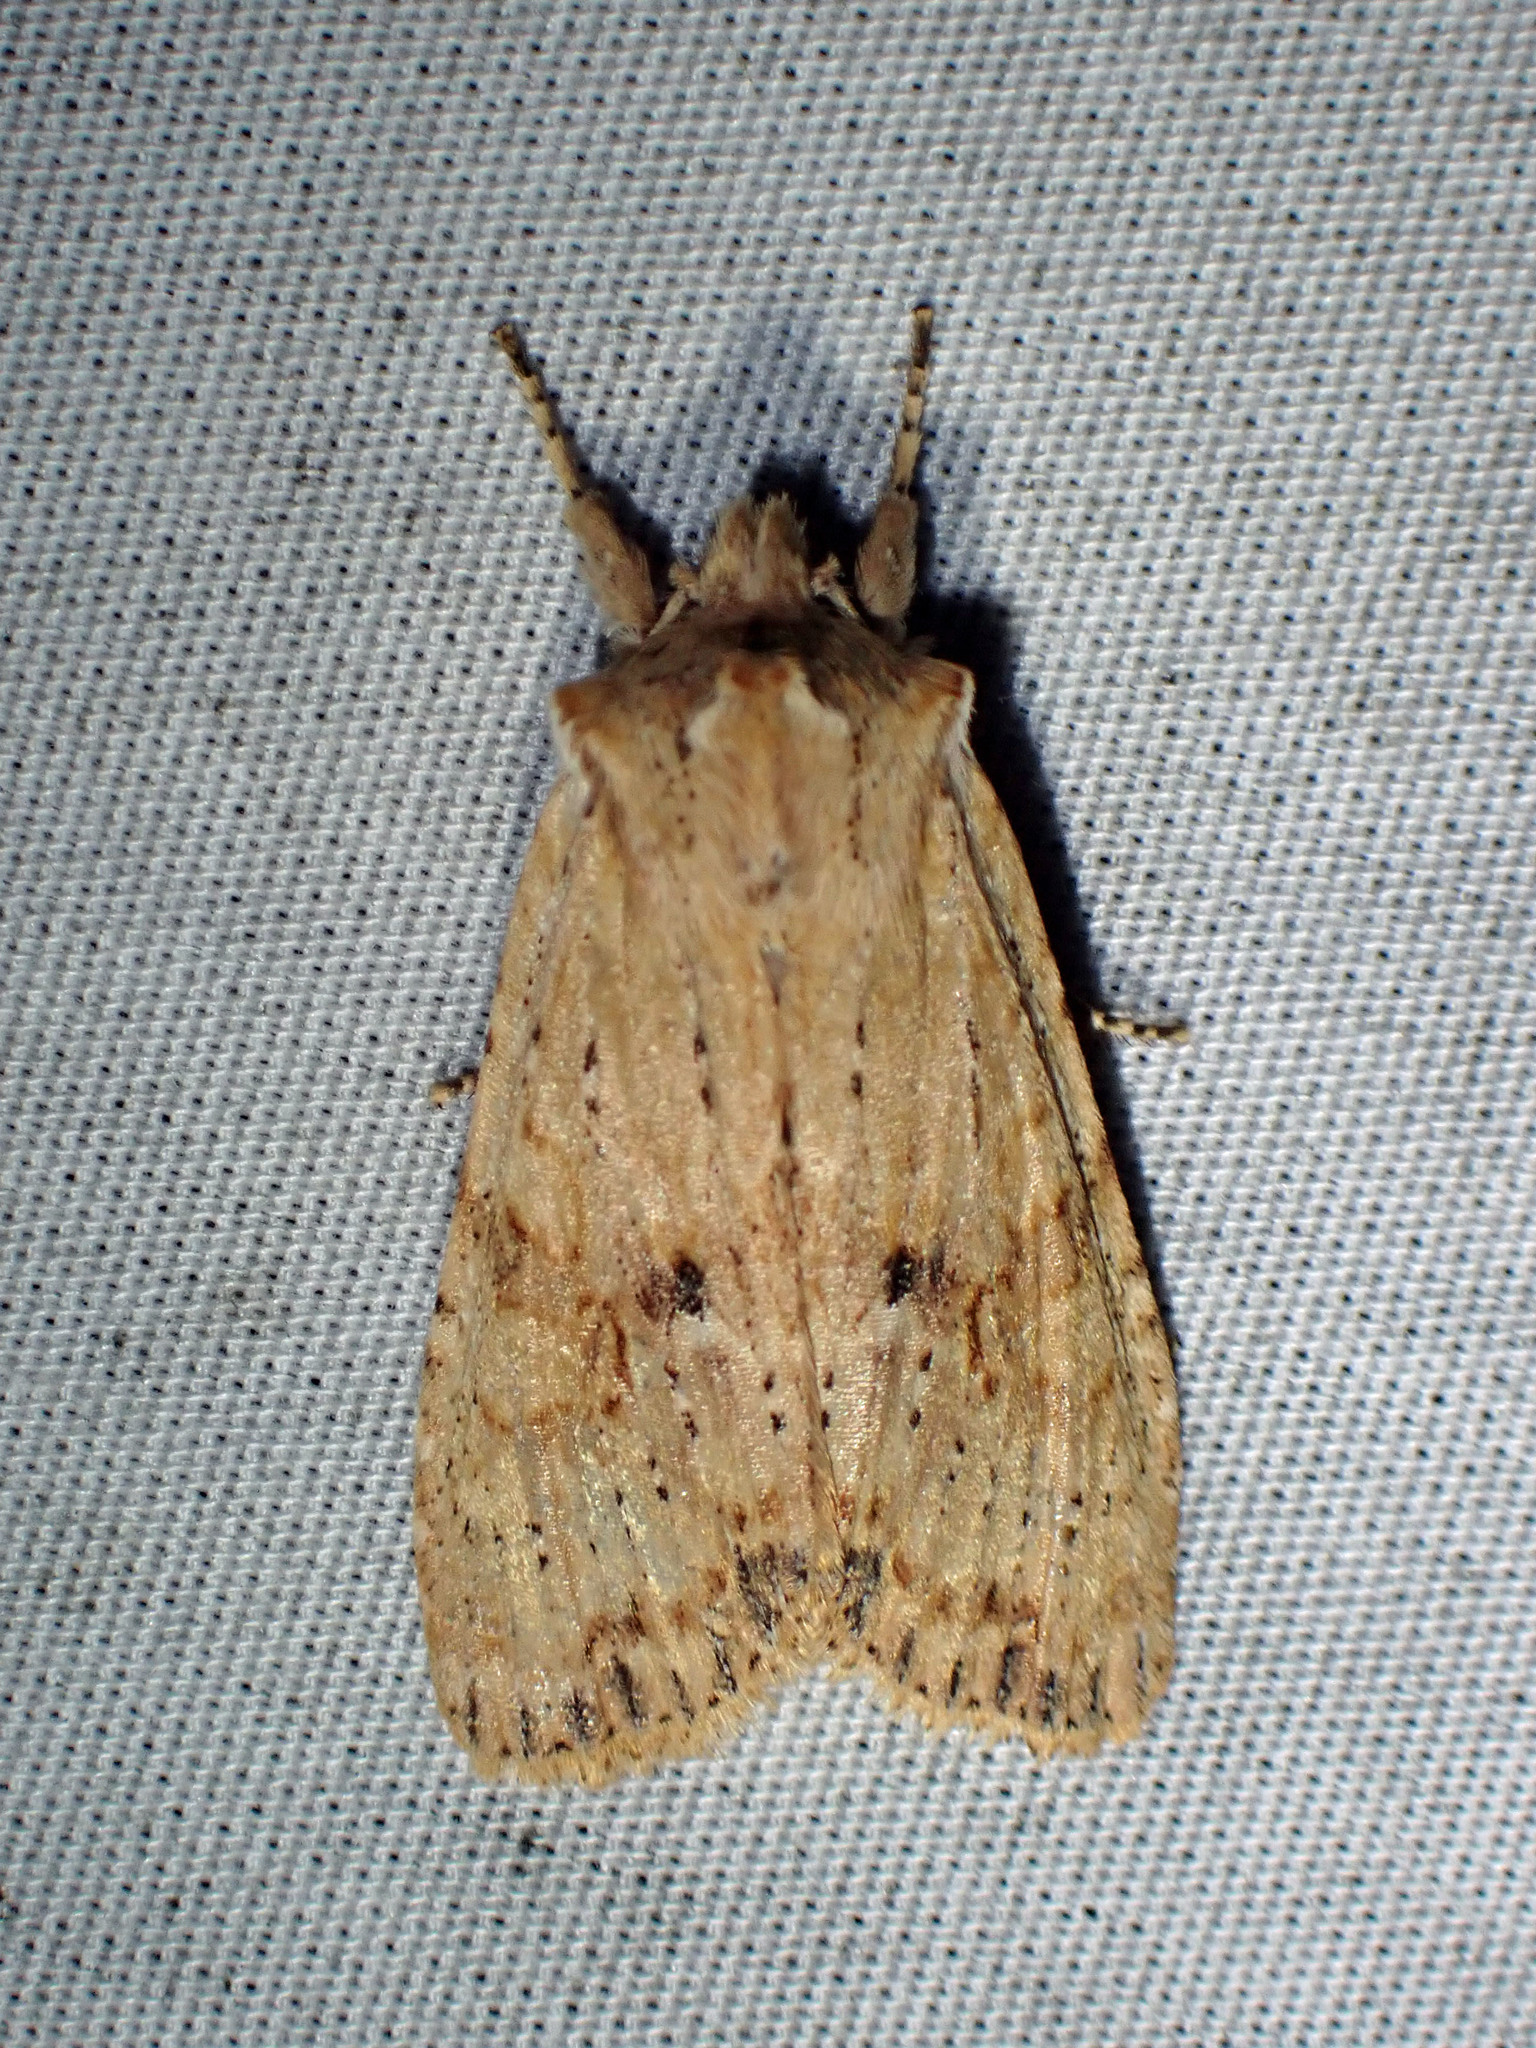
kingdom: Animalia
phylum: Arthropoda
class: Insecta
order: Lepidoptera
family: Noctuidae
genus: Lithophane
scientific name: Lithophane innominata
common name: Nameless pinion moth
